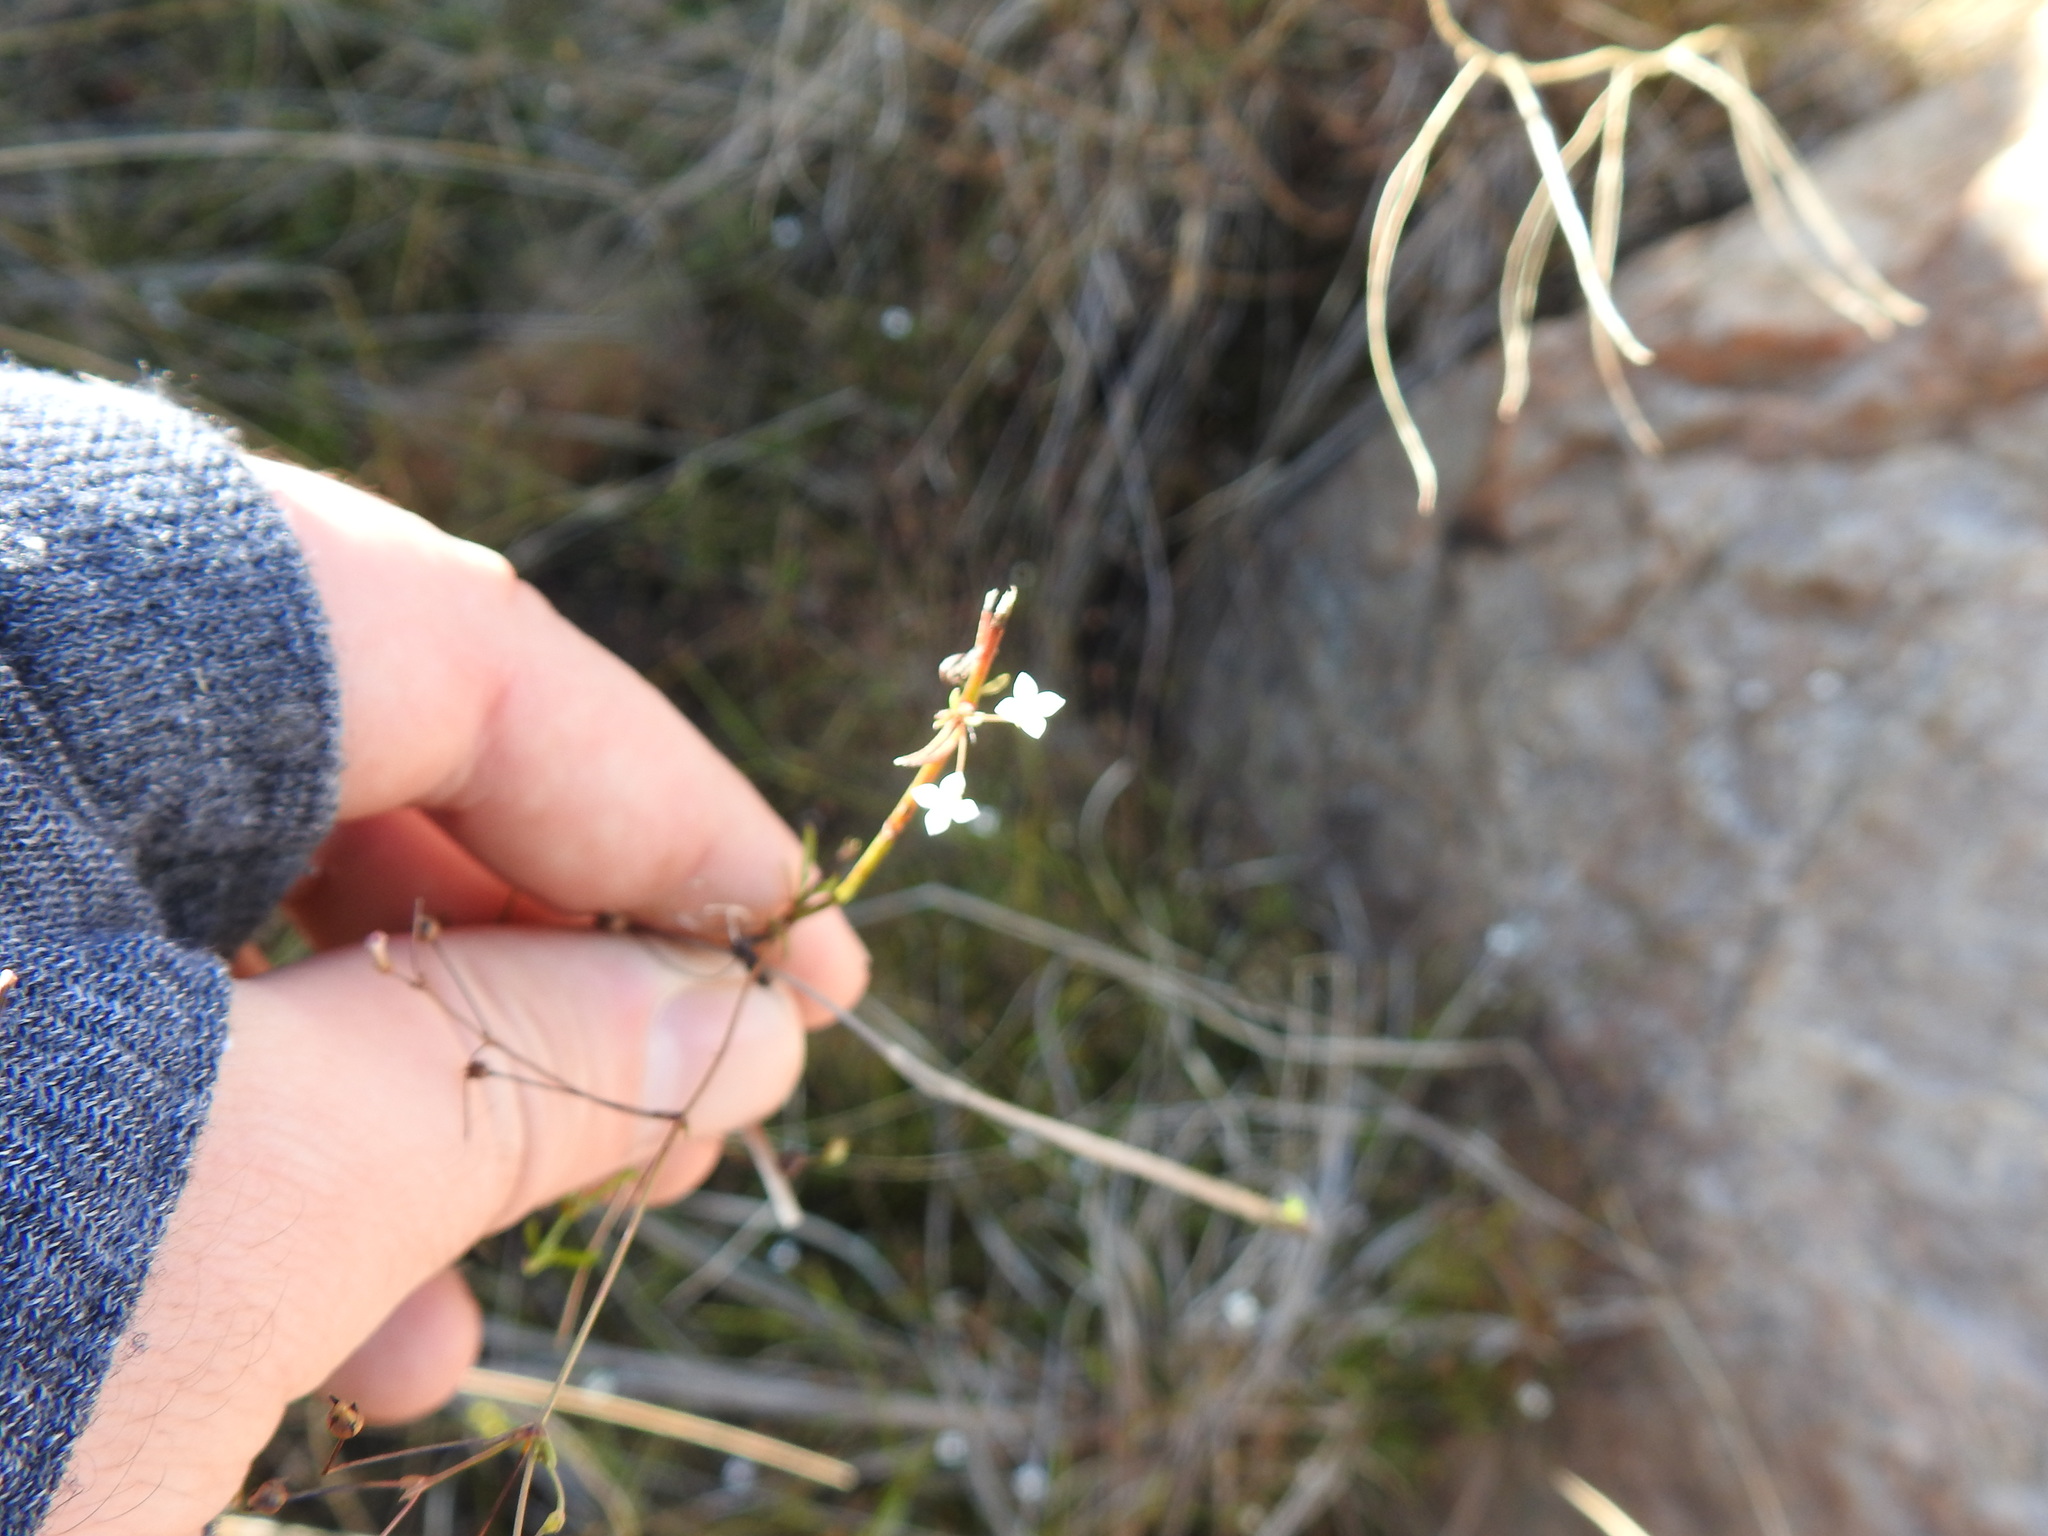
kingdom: Plantae
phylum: Tracheophyta
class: Magnoliopsida
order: Gentianales
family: Rubiaceae
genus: Oldenlandia
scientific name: Oldenlandia herbacea
